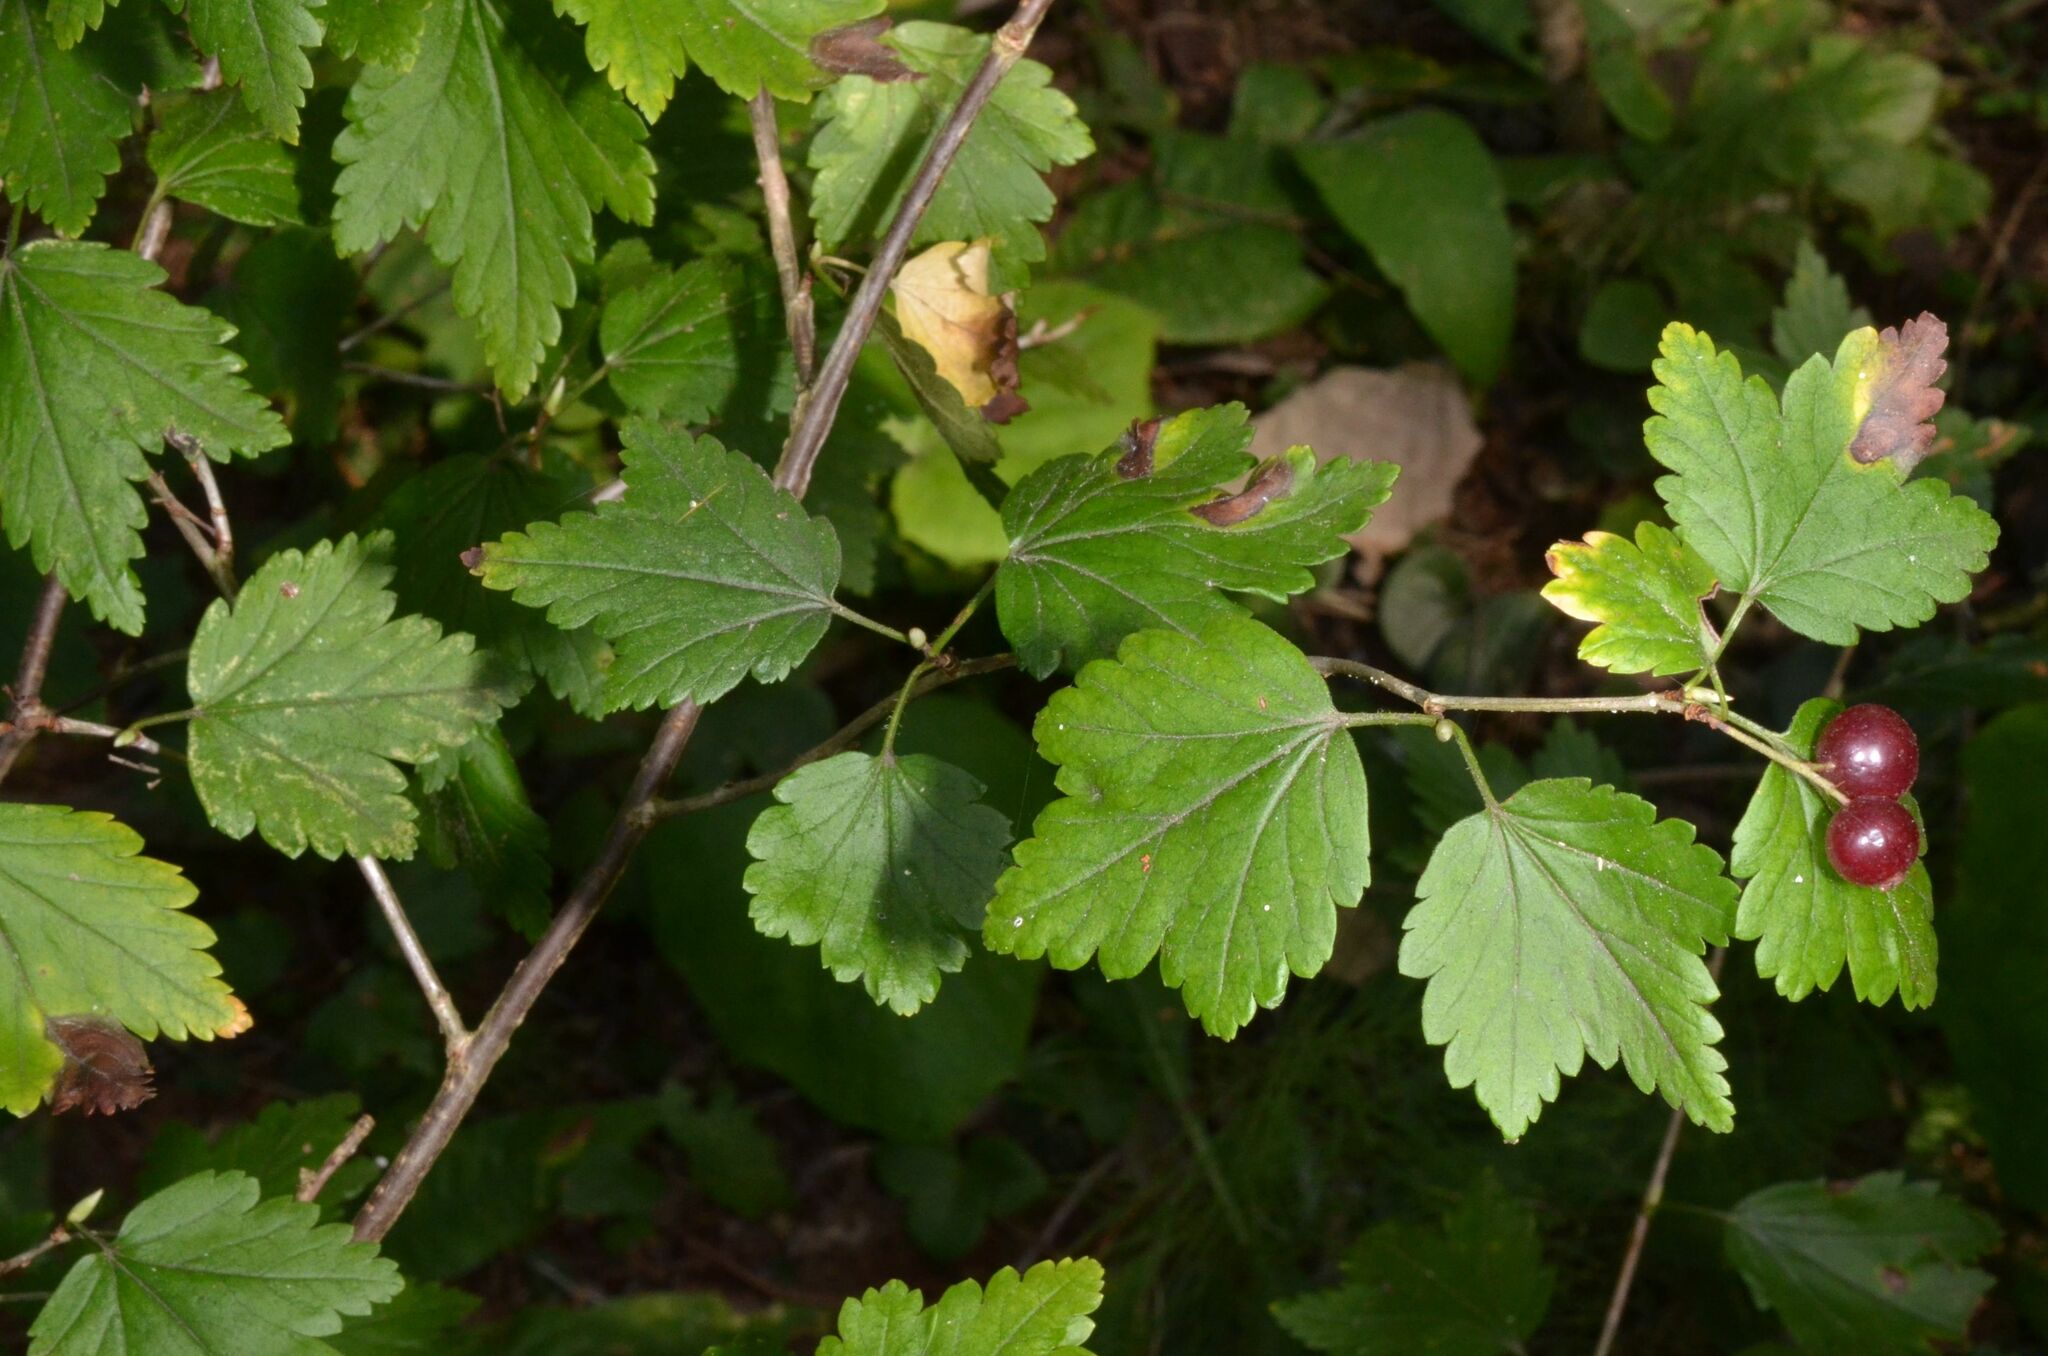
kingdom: Plantae
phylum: Tracheophyta
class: Magnoliopsida
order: Saxifragales
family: Grossulariaceae
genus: Ribes
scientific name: Ribes alpinum
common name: Alpine currant
